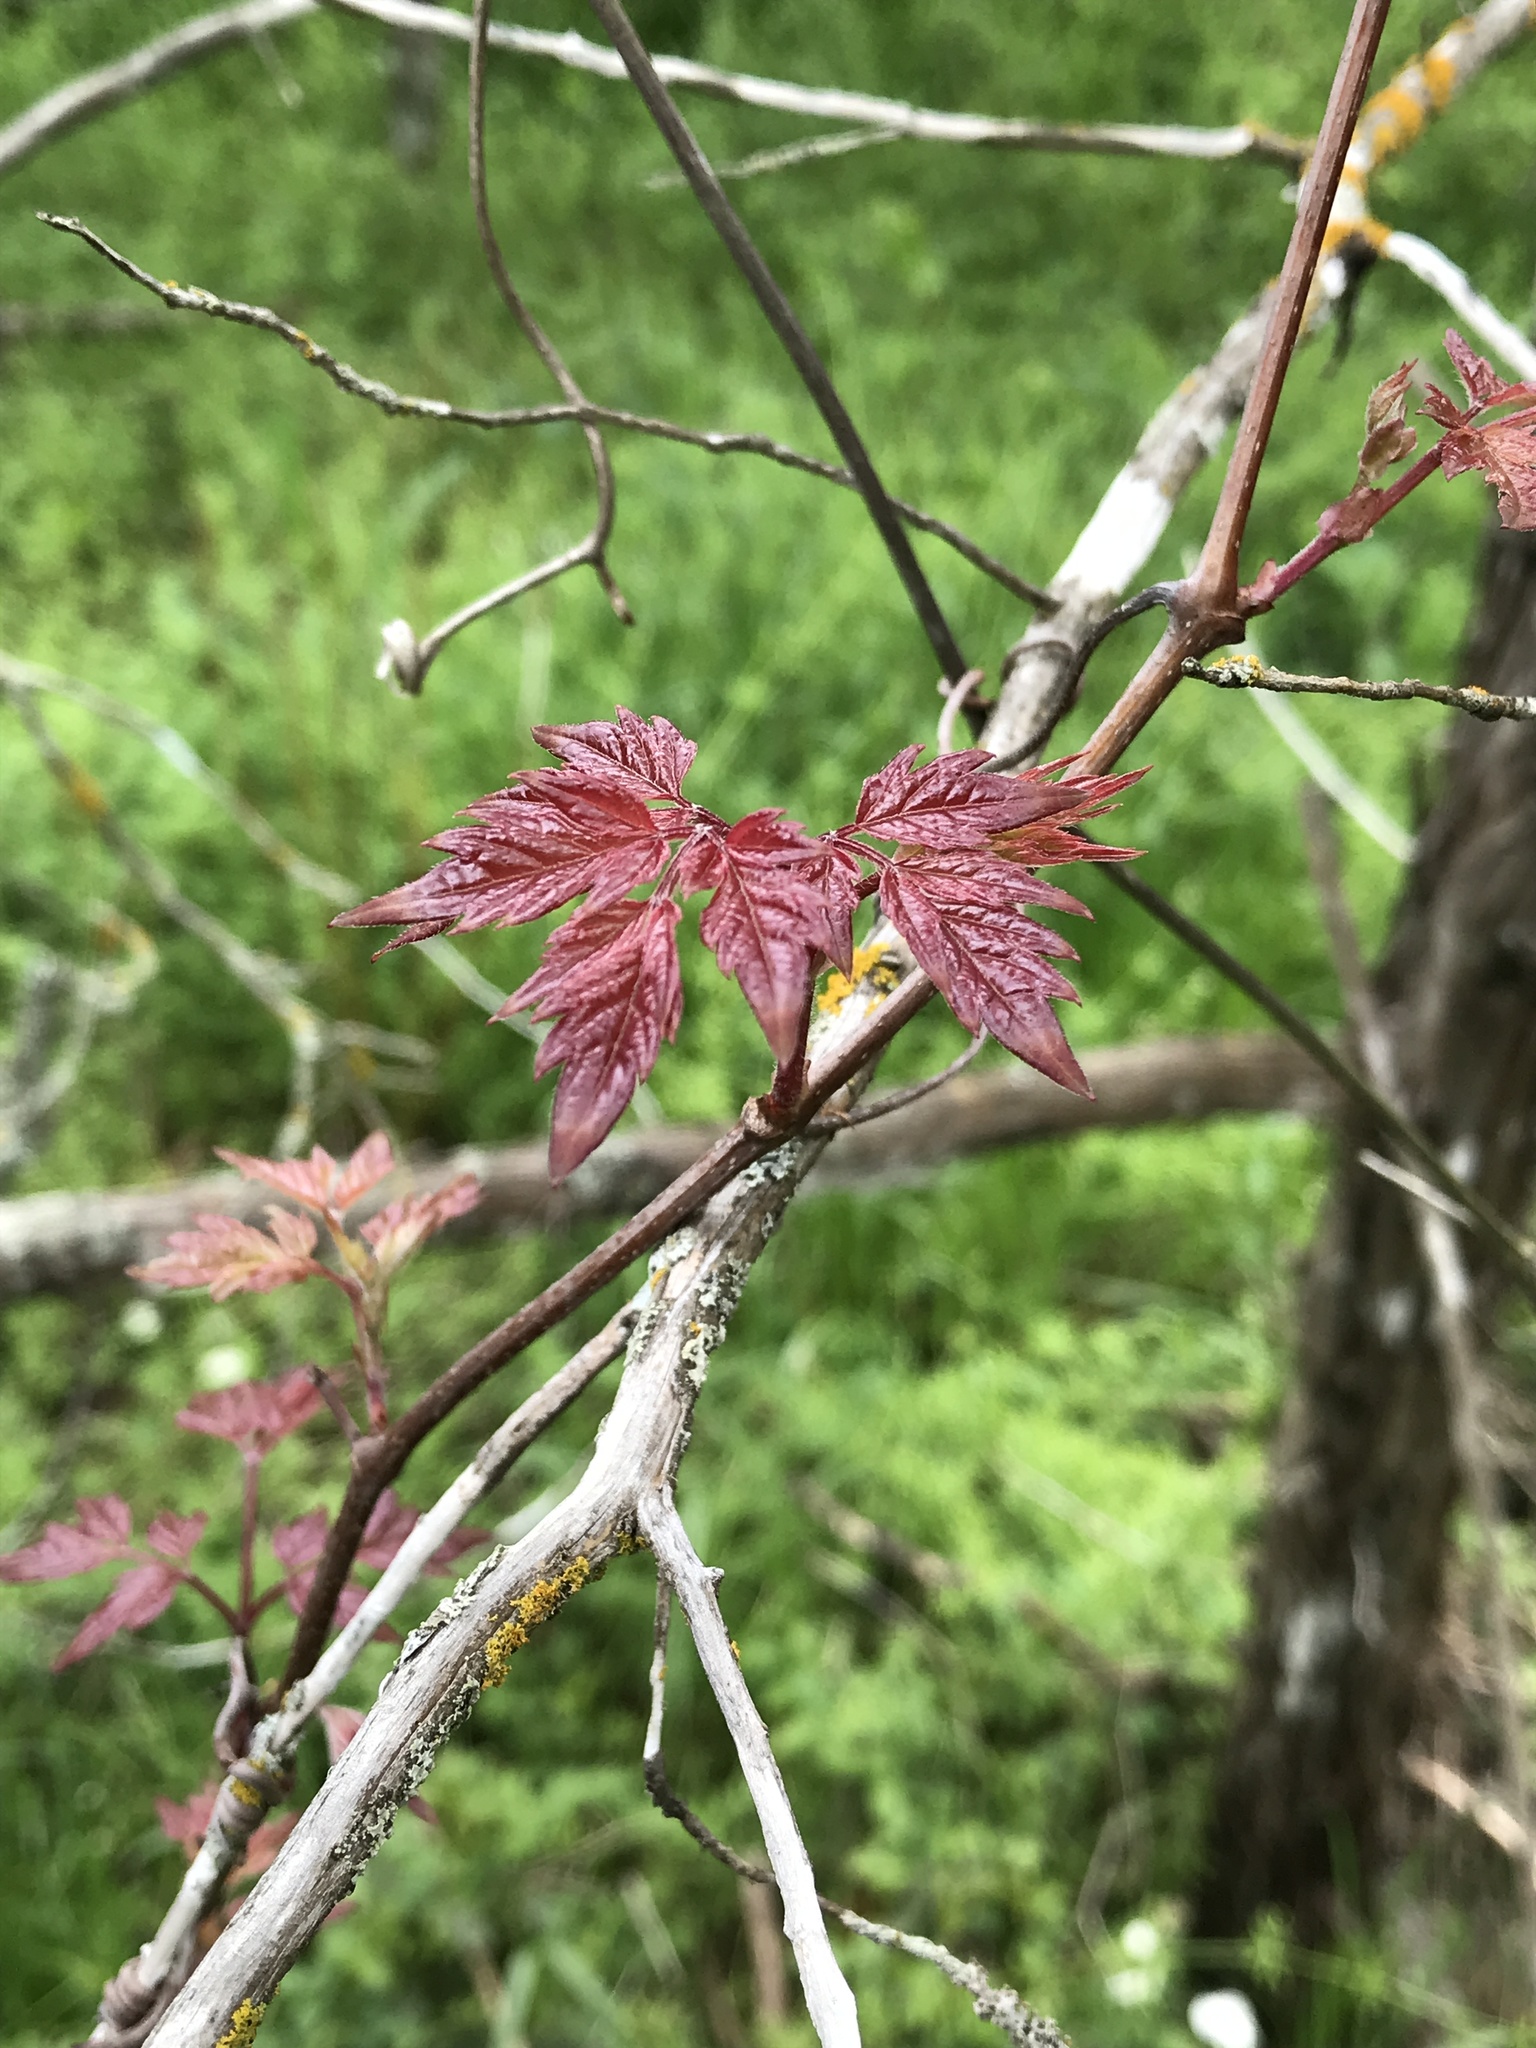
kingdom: Plantae
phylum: Tracheophyta
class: Magnoliopsida
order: Vitales
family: Vitaceae
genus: Nekemias
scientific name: Nekemias arborea
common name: Peppervine
